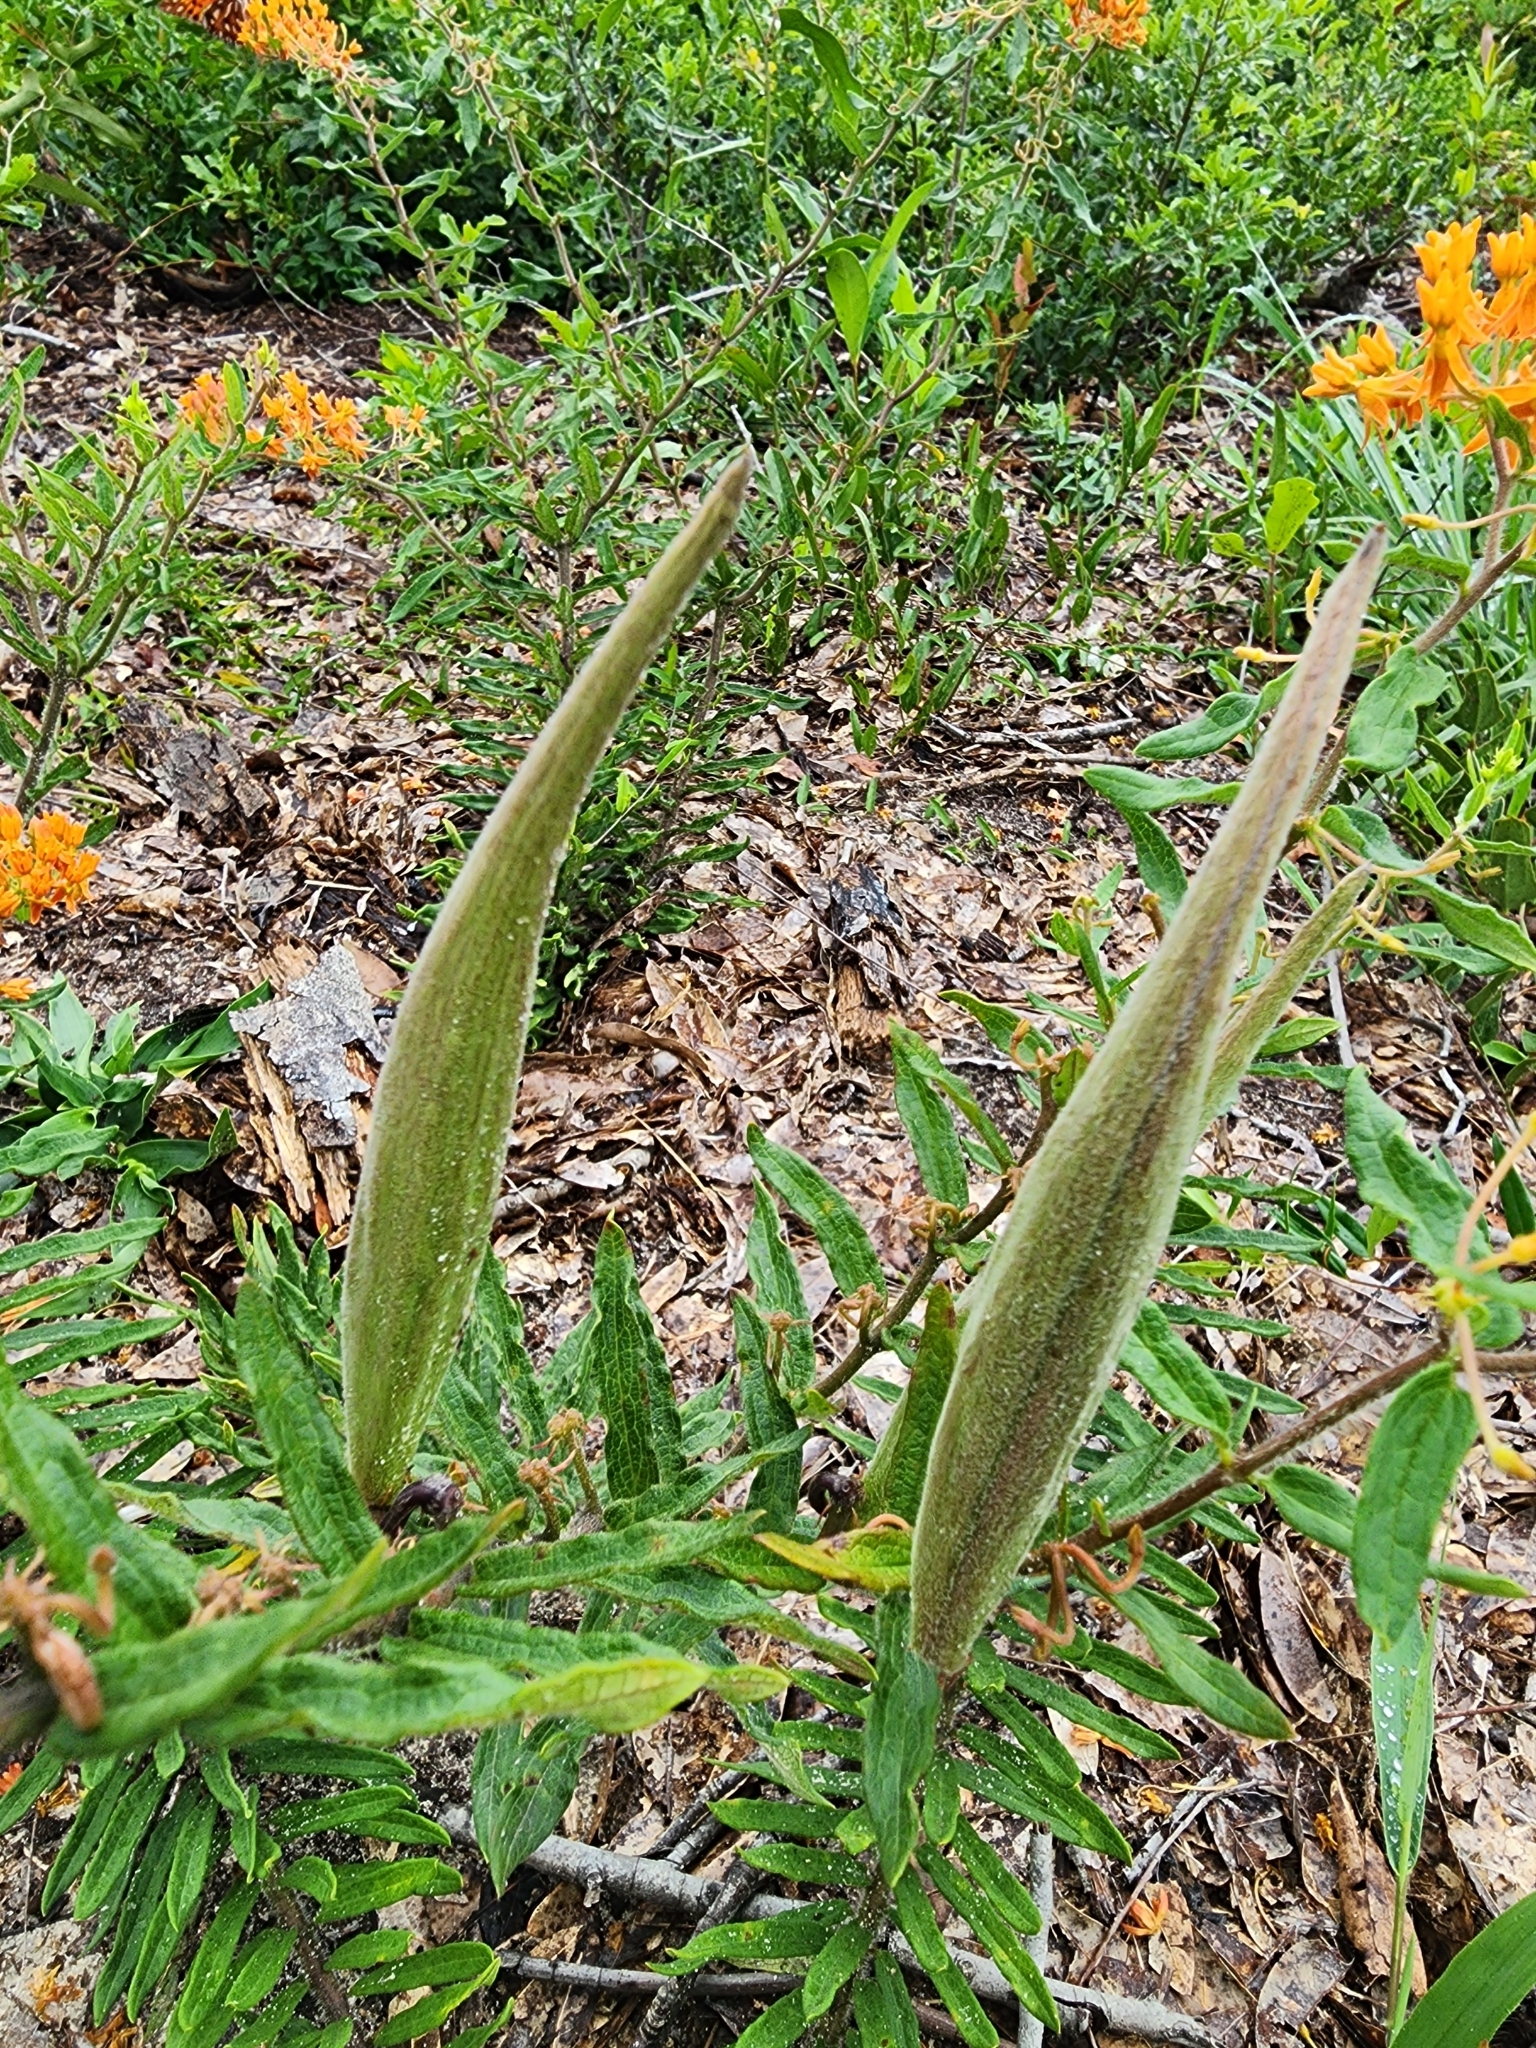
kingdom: Plantae
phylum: Tracheophyta
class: Magnoliopsida
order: Gentianales
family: Apocynaceae
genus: Asclepias
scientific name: Asclepias tuberosa
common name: Butterfly milkweed
